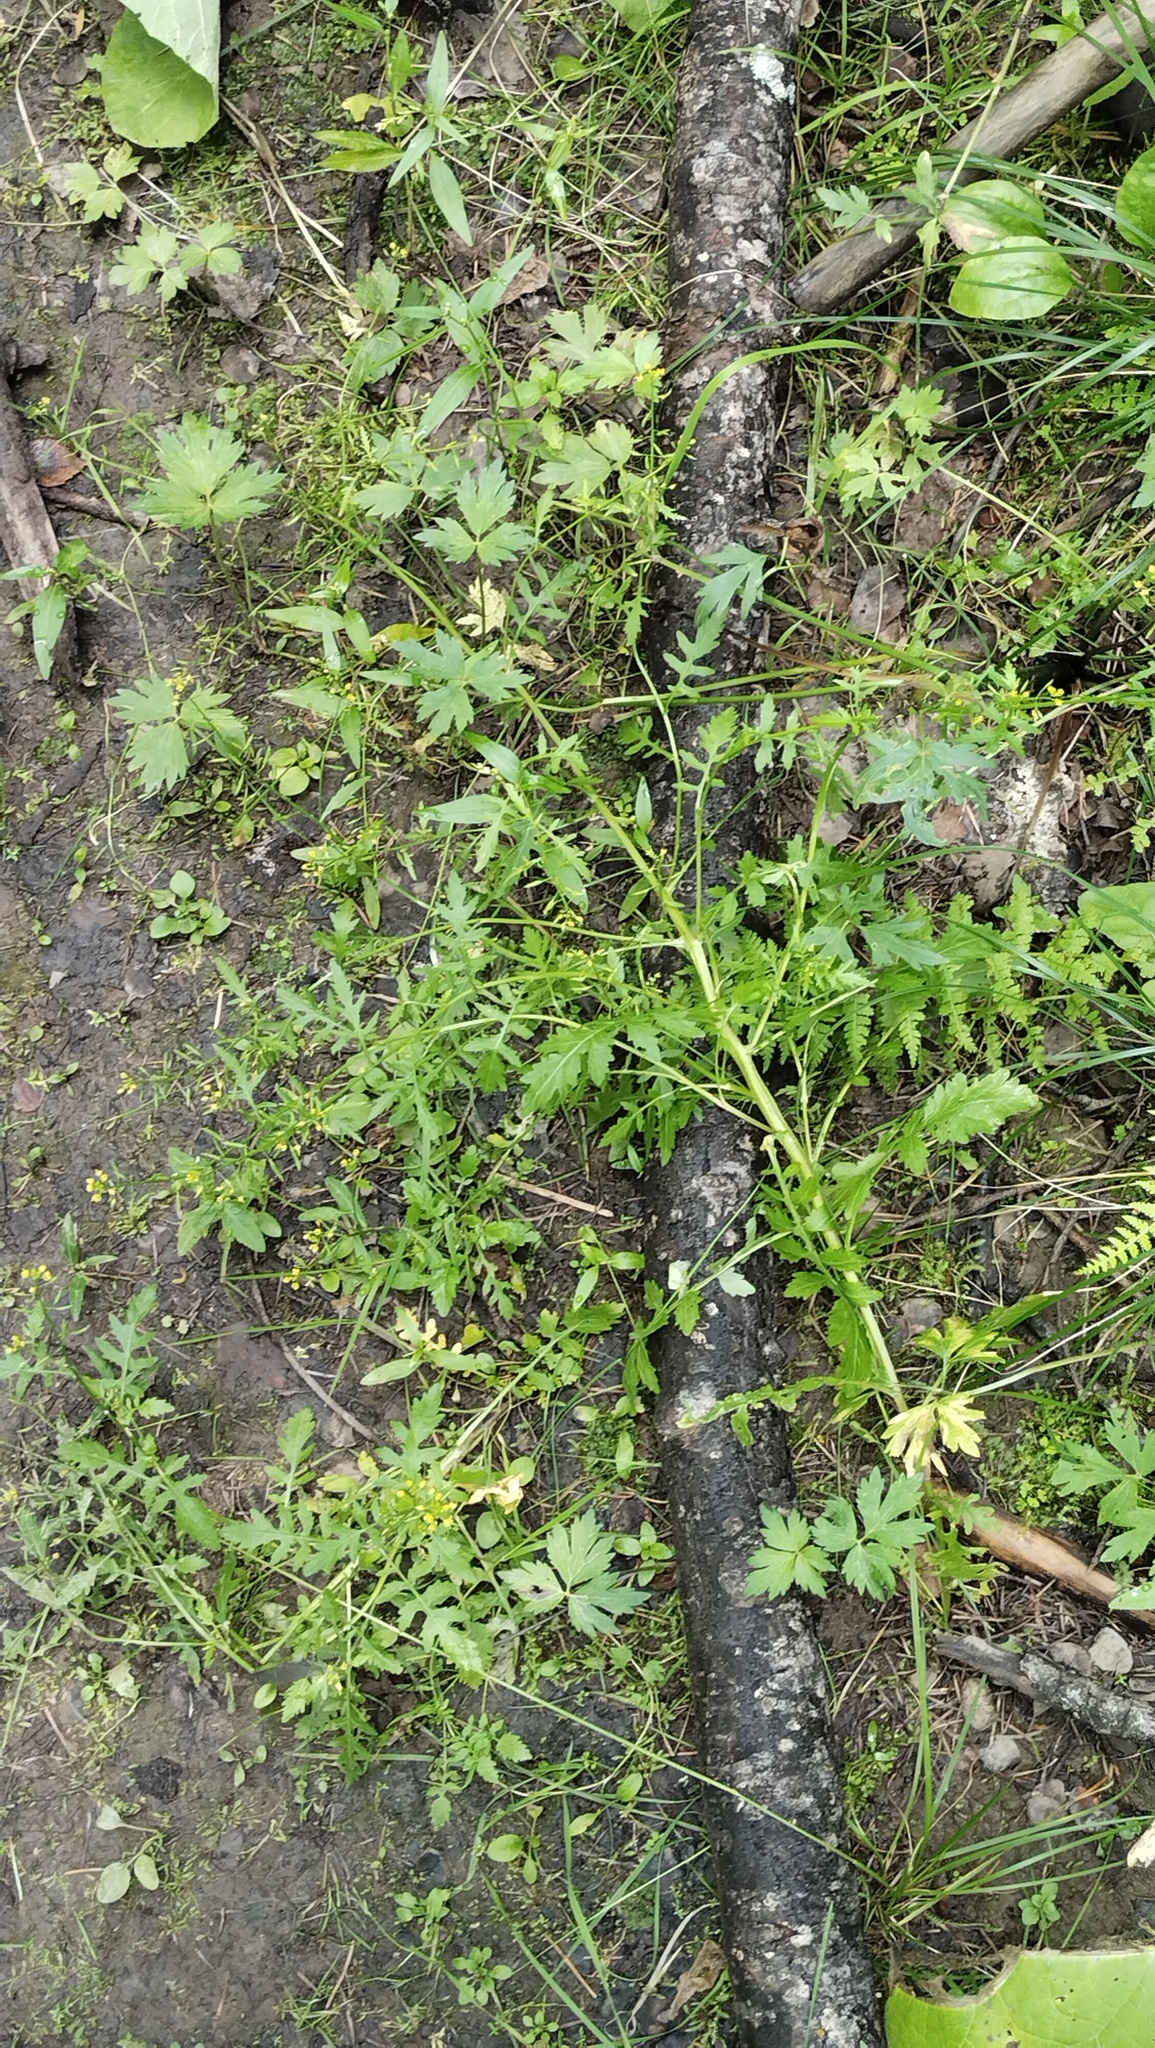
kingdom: Plantae
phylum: Tracheophyta
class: Magnoliopsida
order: Brassicales
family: Brassicaceae
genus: Rorippa
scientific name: Rorippa palustris
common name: Marsh yellow-cress
